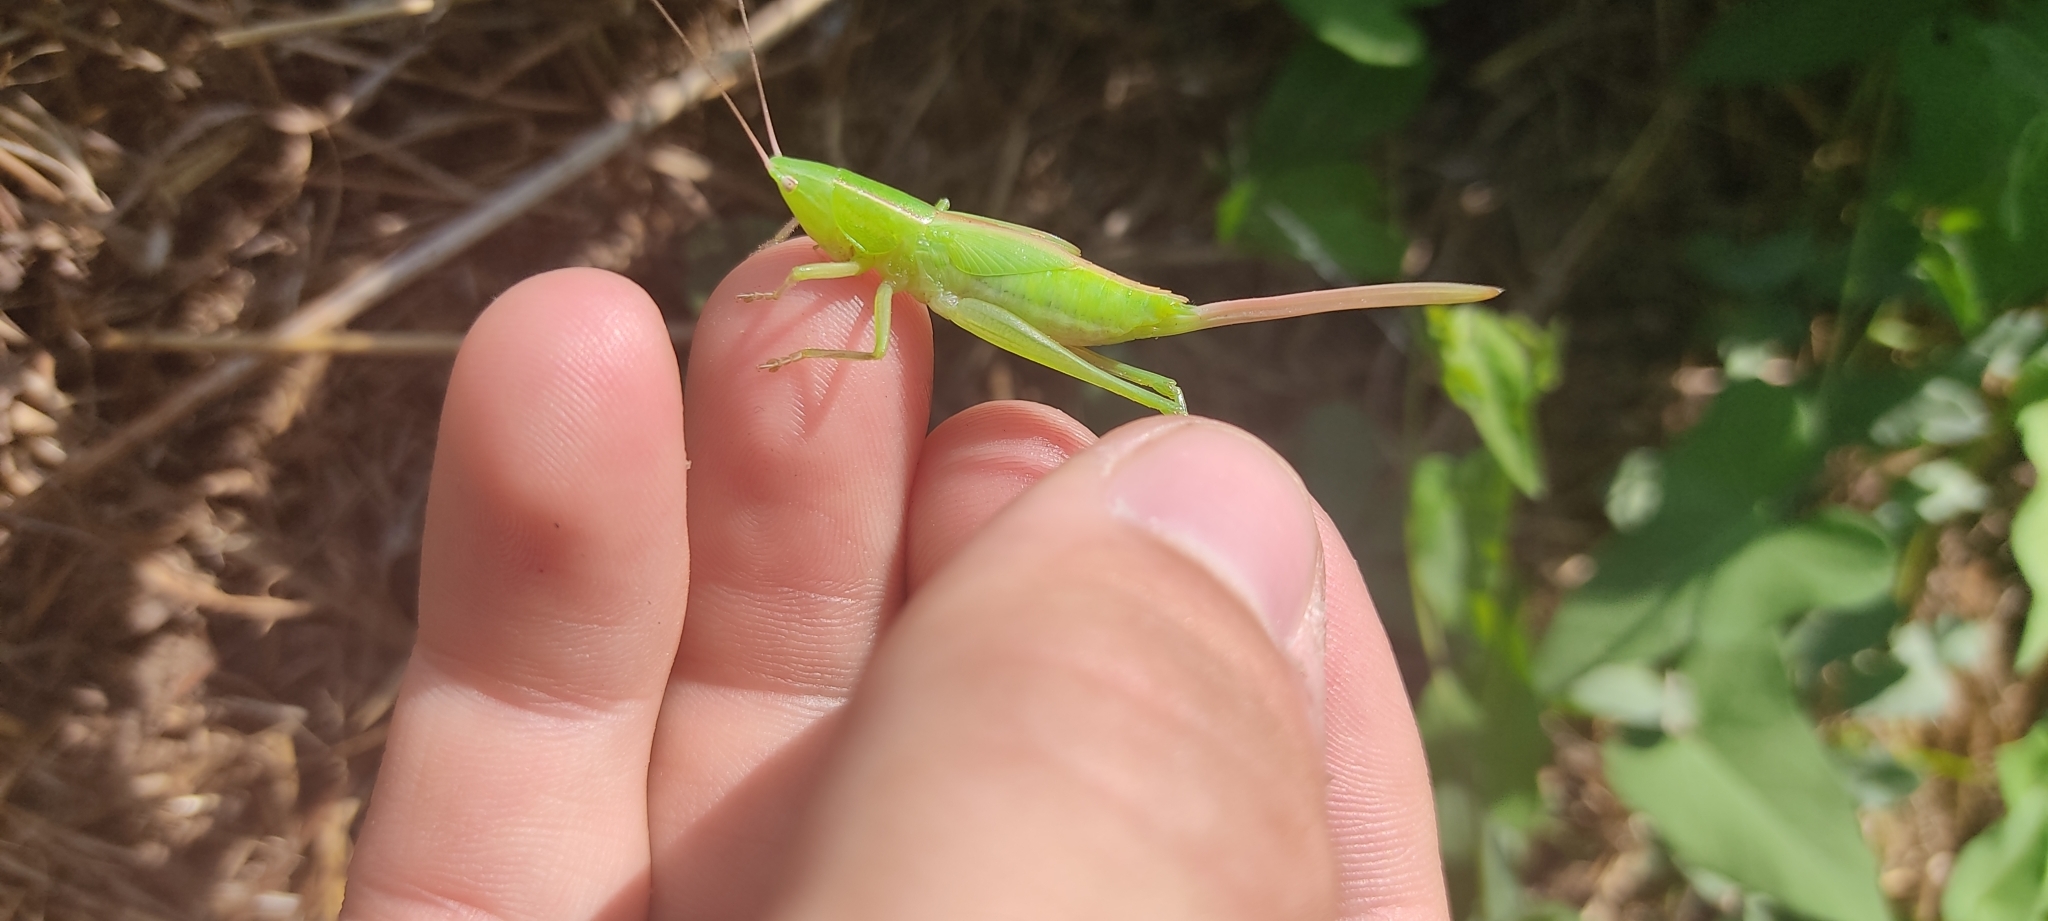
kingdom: Animalia
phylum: Arthropoda
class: Insecta
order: Orthoptera
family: Tettigoniidae
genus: Ruspolia
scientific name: Ruspolia nitidula
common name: Large conehead
